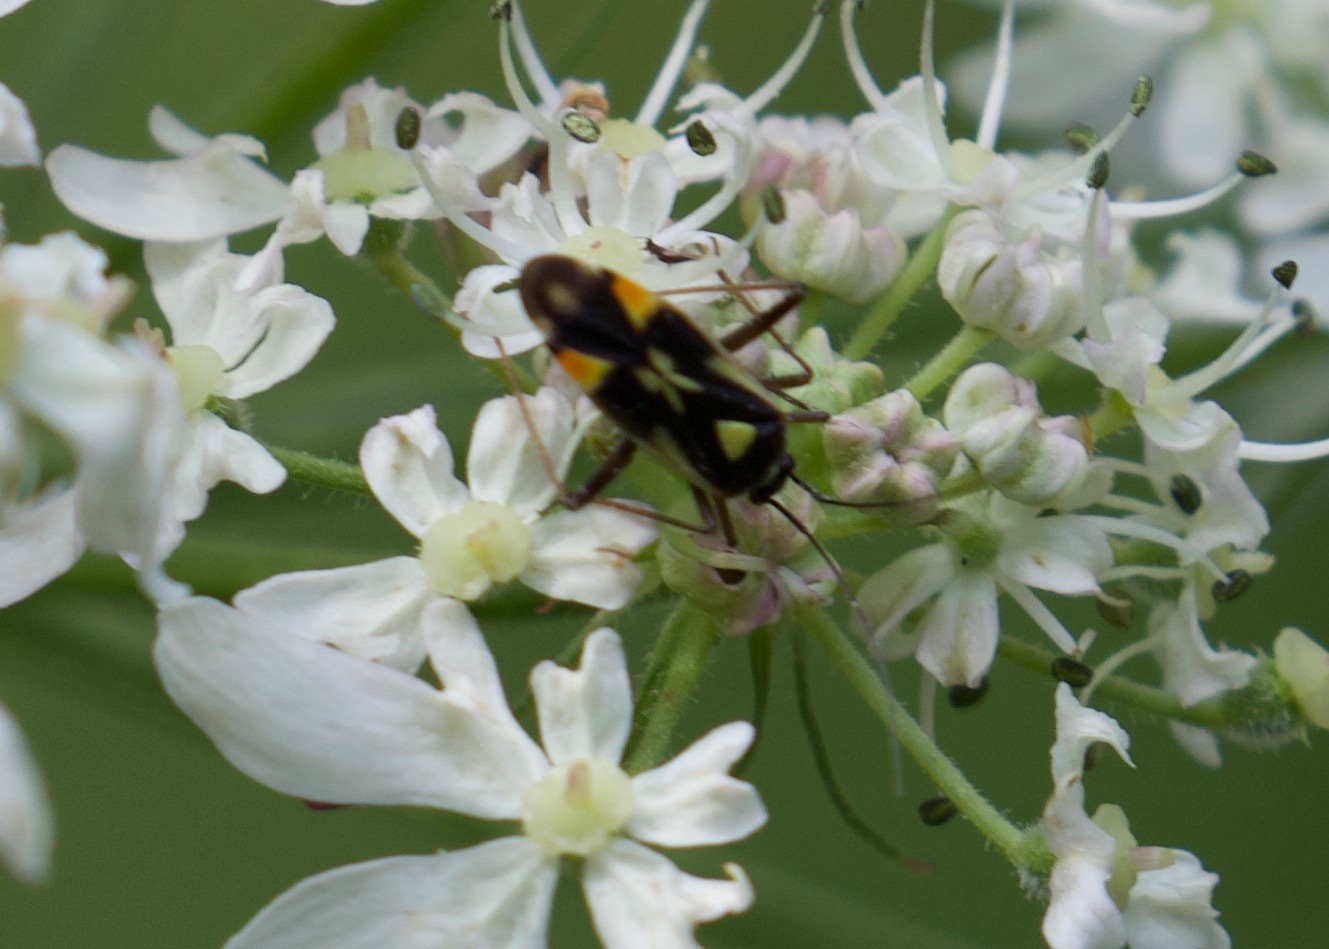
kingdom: Animalia
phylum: Arthropoda
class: Insecta
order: Hemiptera
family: Miridae
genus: Grypocoris
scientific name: Grypocoris stysi
